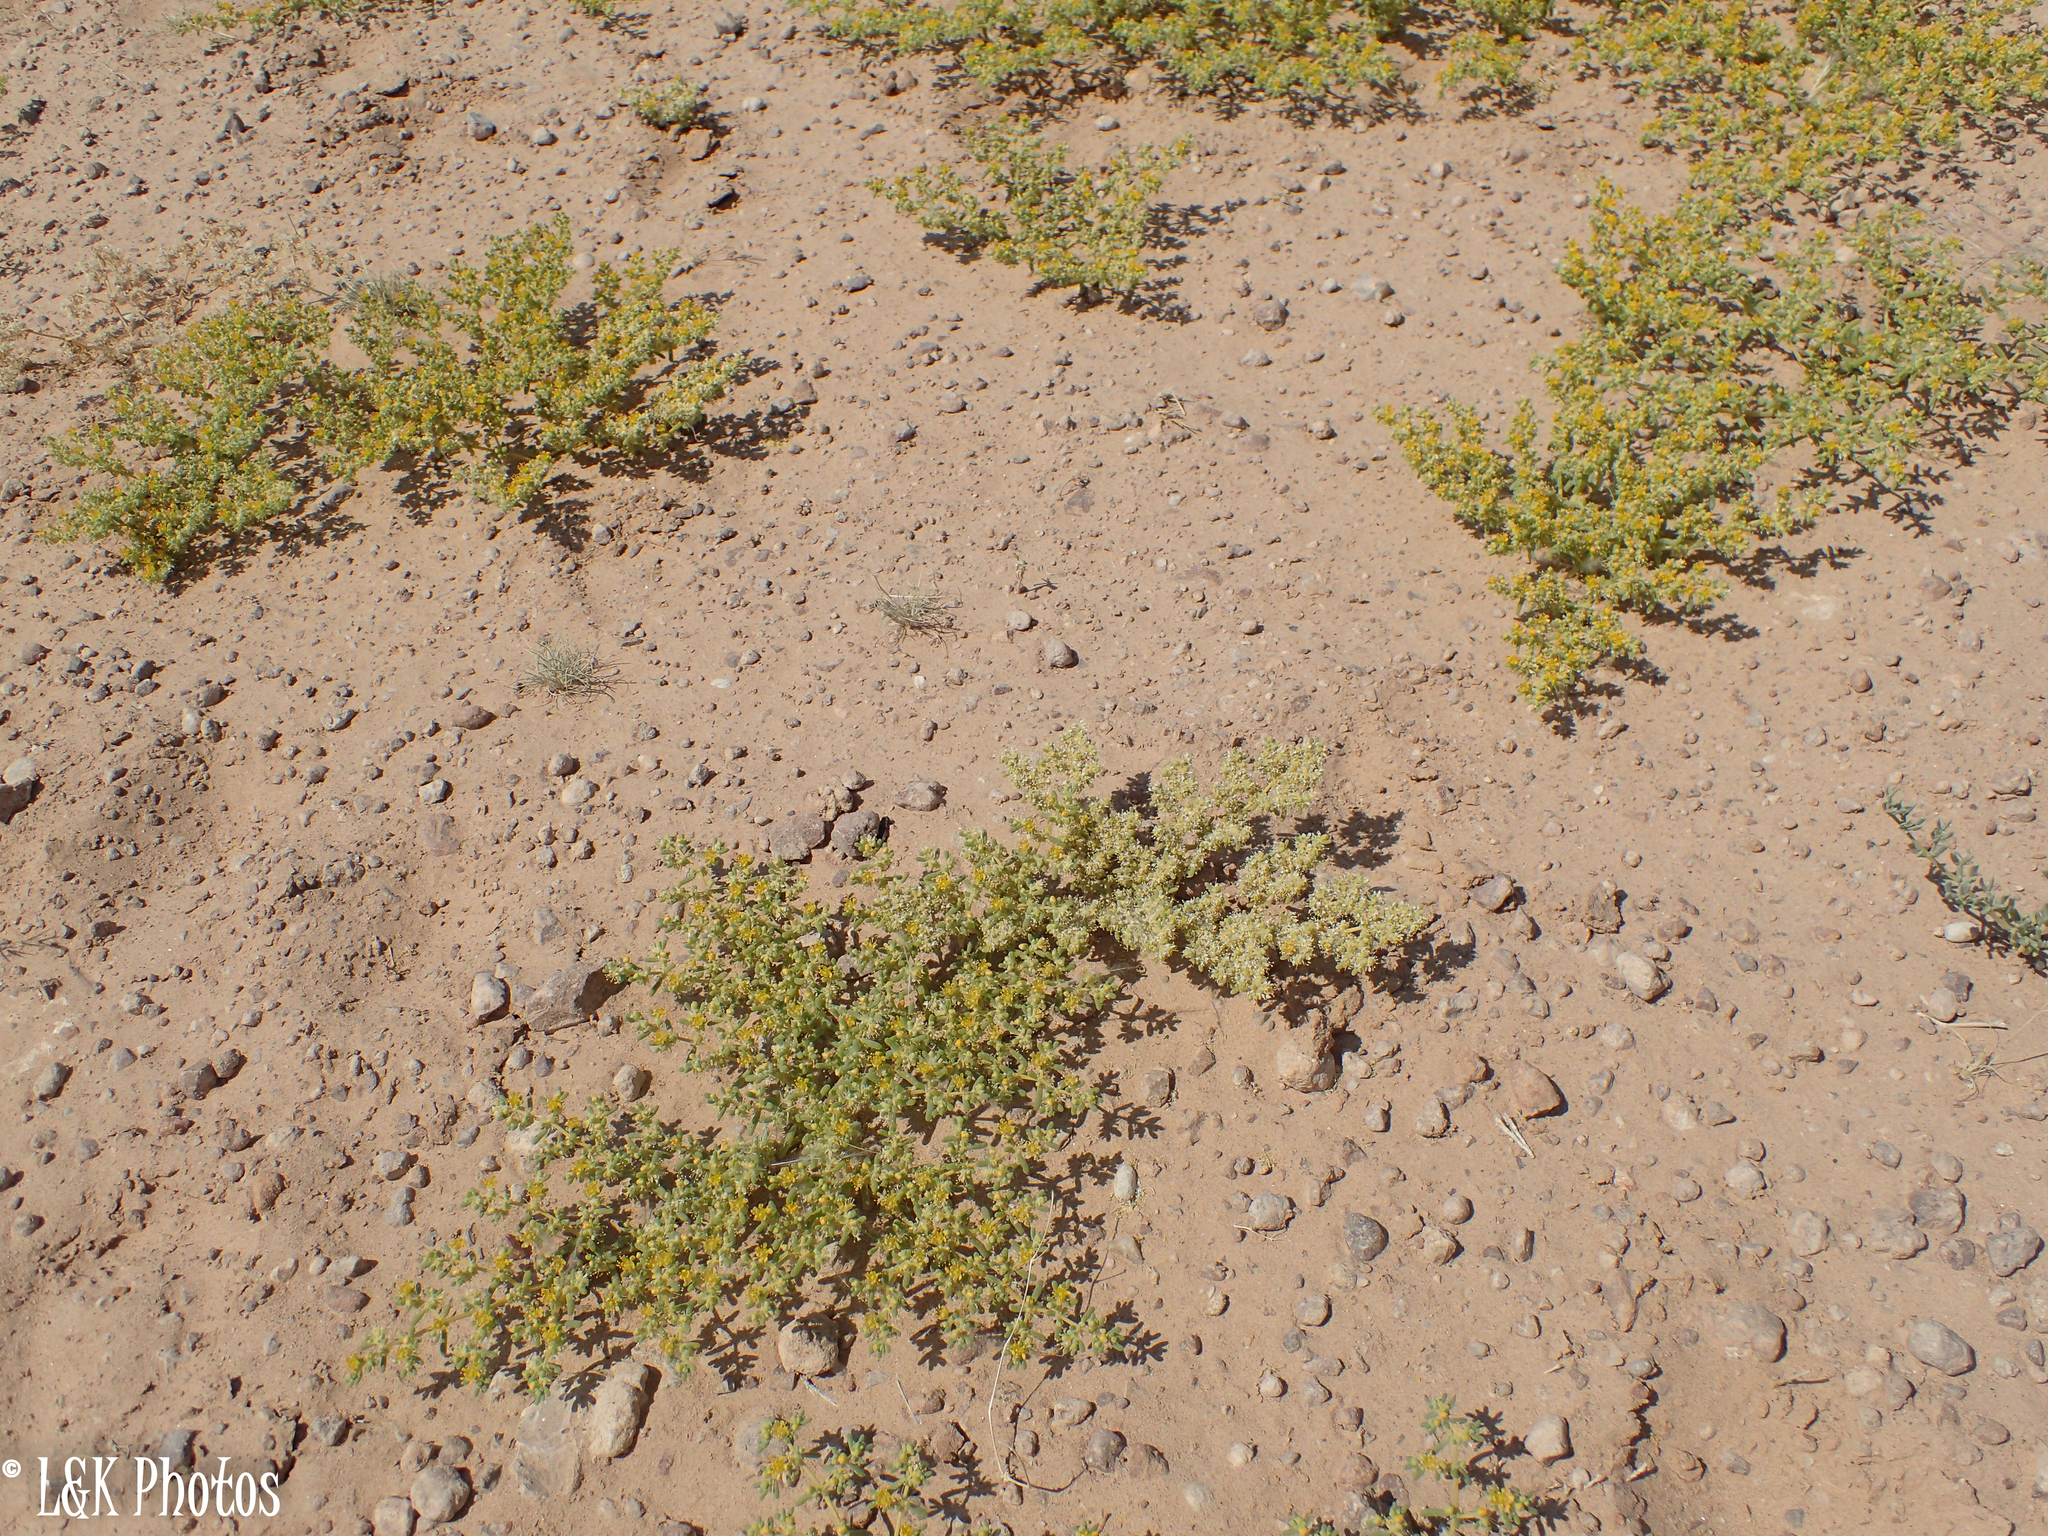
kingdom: Plantae
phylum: Tracheophyta
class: Magnoliopsida
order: Zygophyllales
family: Zygophyllaceae
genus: Tetraena
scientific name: Tetraena simplex
